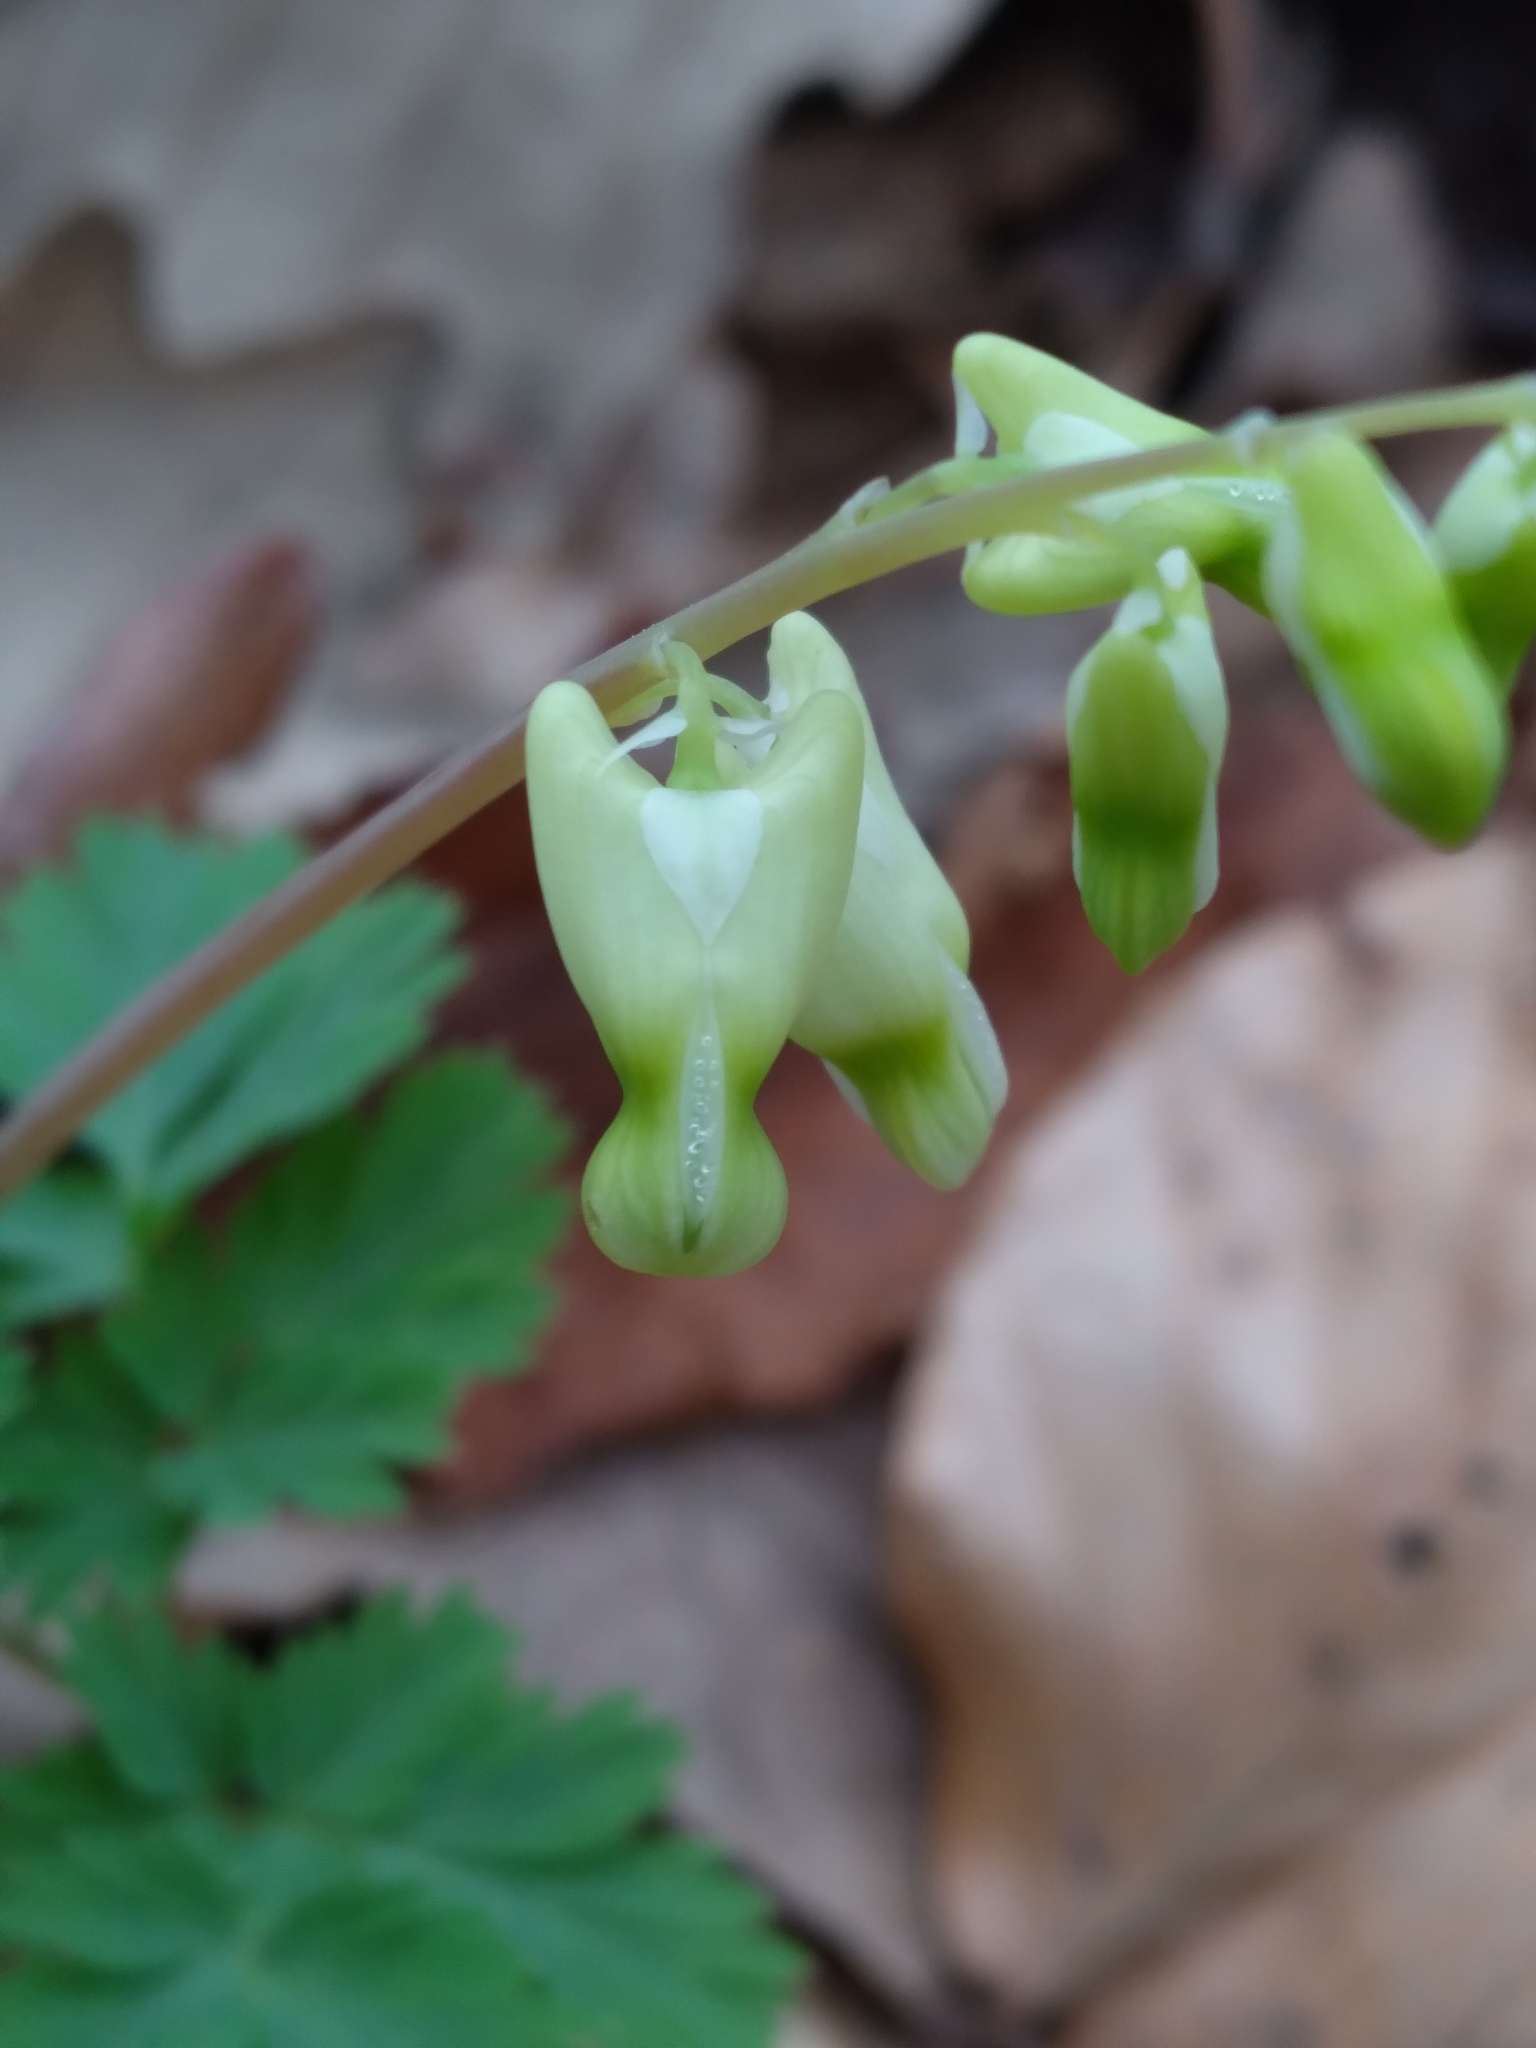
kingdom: Plantae
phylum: Tracheophyta
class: Magnoliopsida
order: Ranunculales
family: Papaveraceae
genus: Dicentra
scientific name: Dicentra cucullaria
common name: Dutchman's breeches
